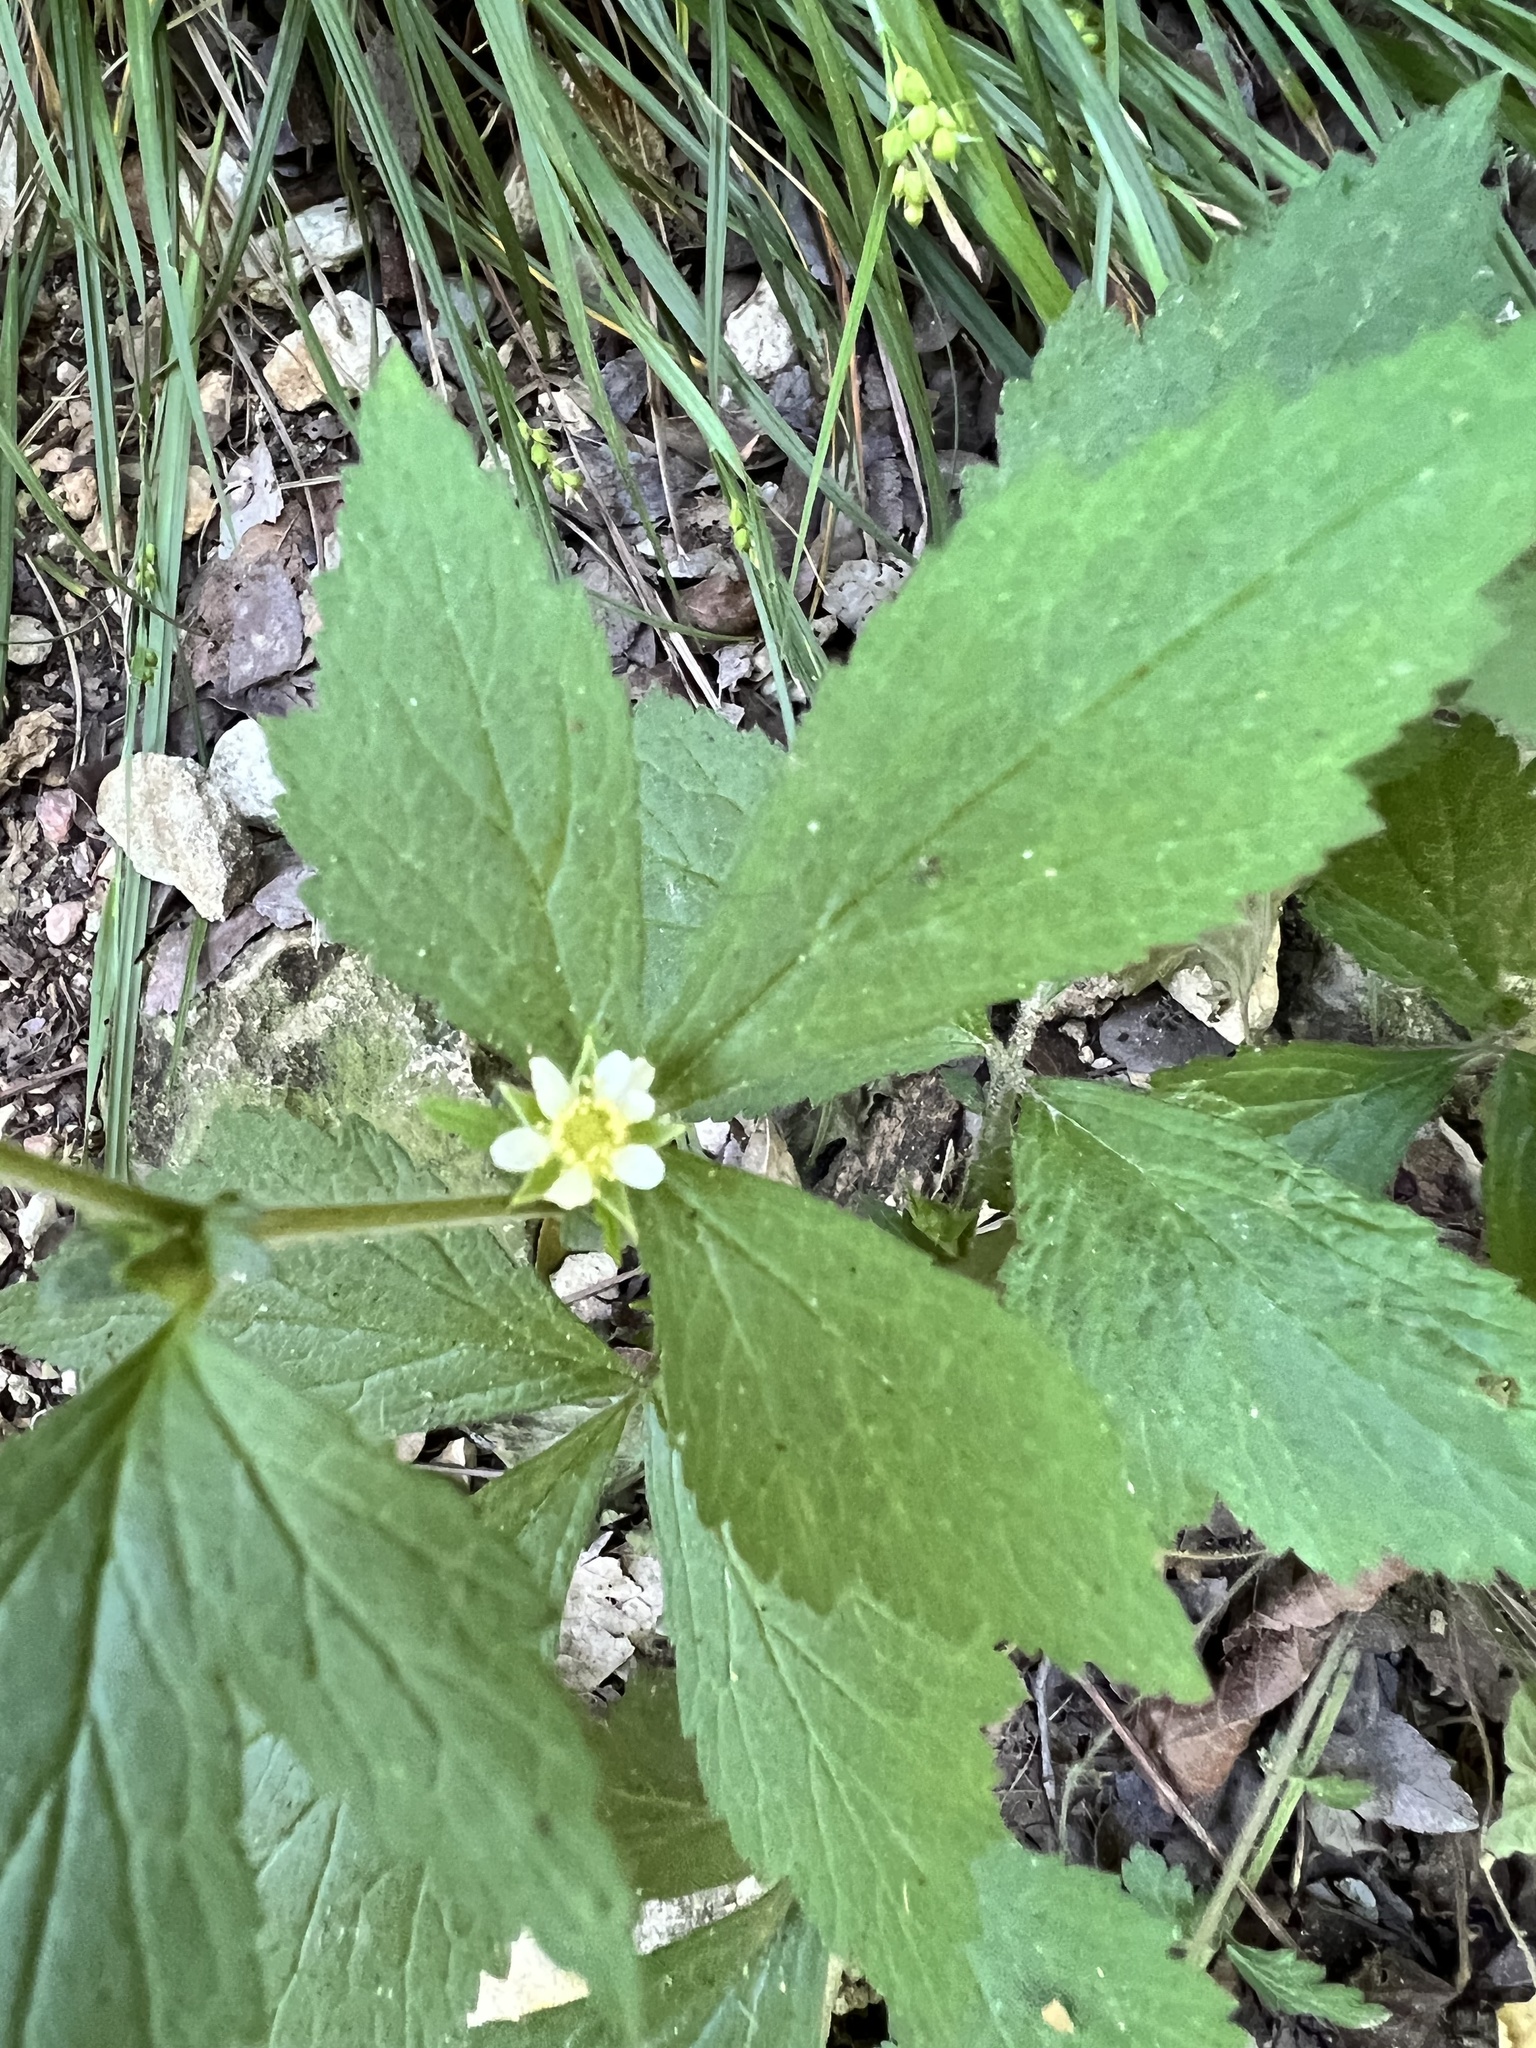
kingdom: Plantae
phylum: Tracheophyta
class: Magnoliopsida
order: Rosales
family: Rosaceae
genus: Geum
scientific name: Geum canadense
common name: White avens
